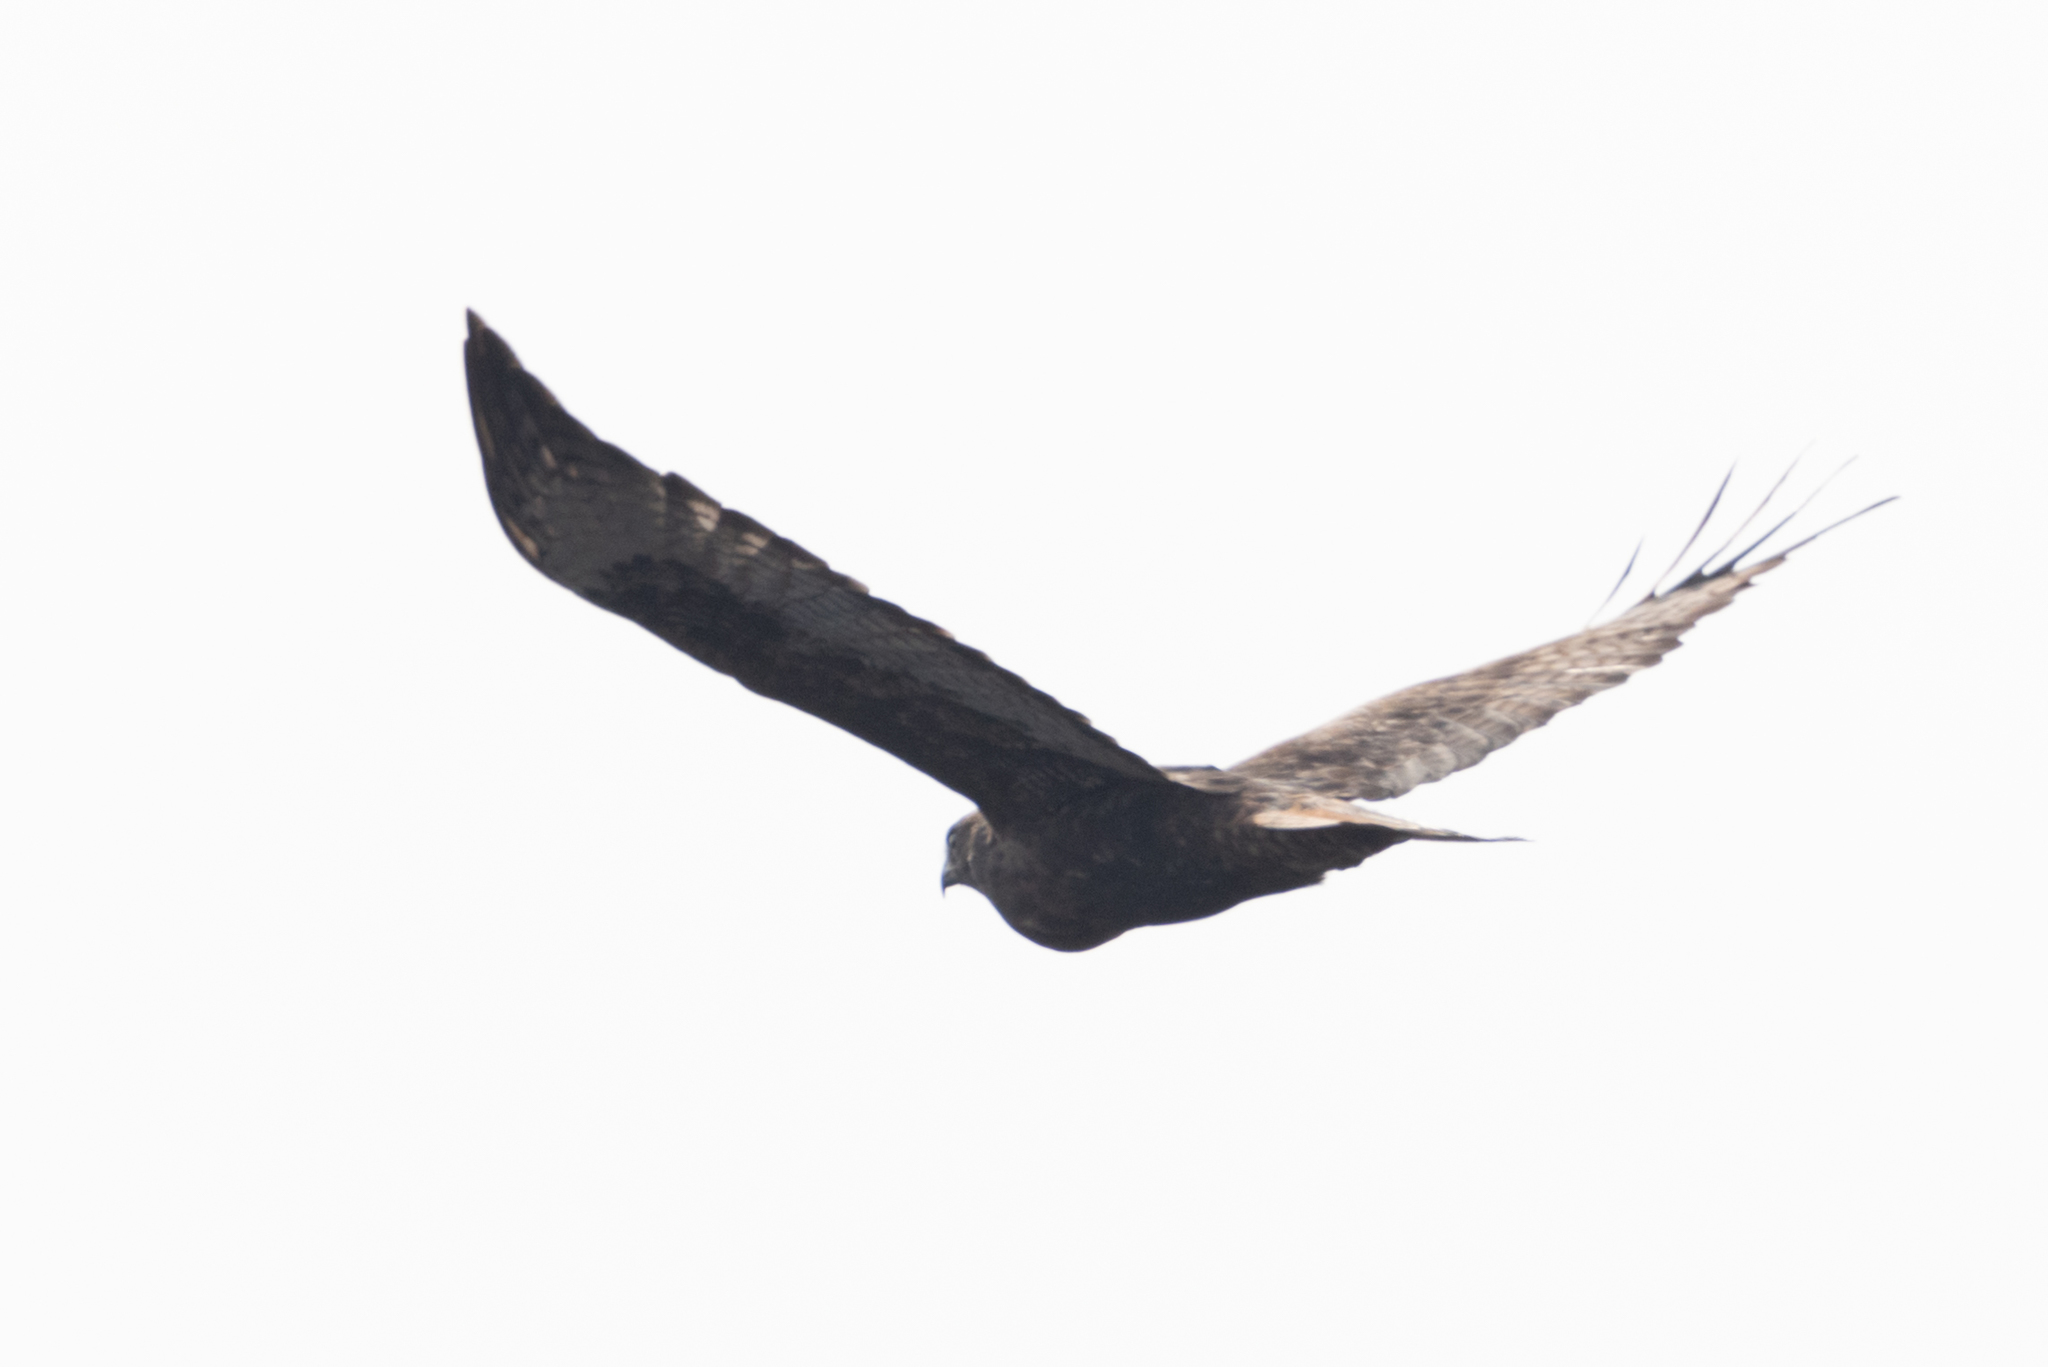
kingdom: Animalia
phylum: Chordata
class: Aves
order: Accipitriformes
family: Accipitridae
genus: Buteo
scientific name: Buteo jamaicensis
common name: Red-tailed hawk
